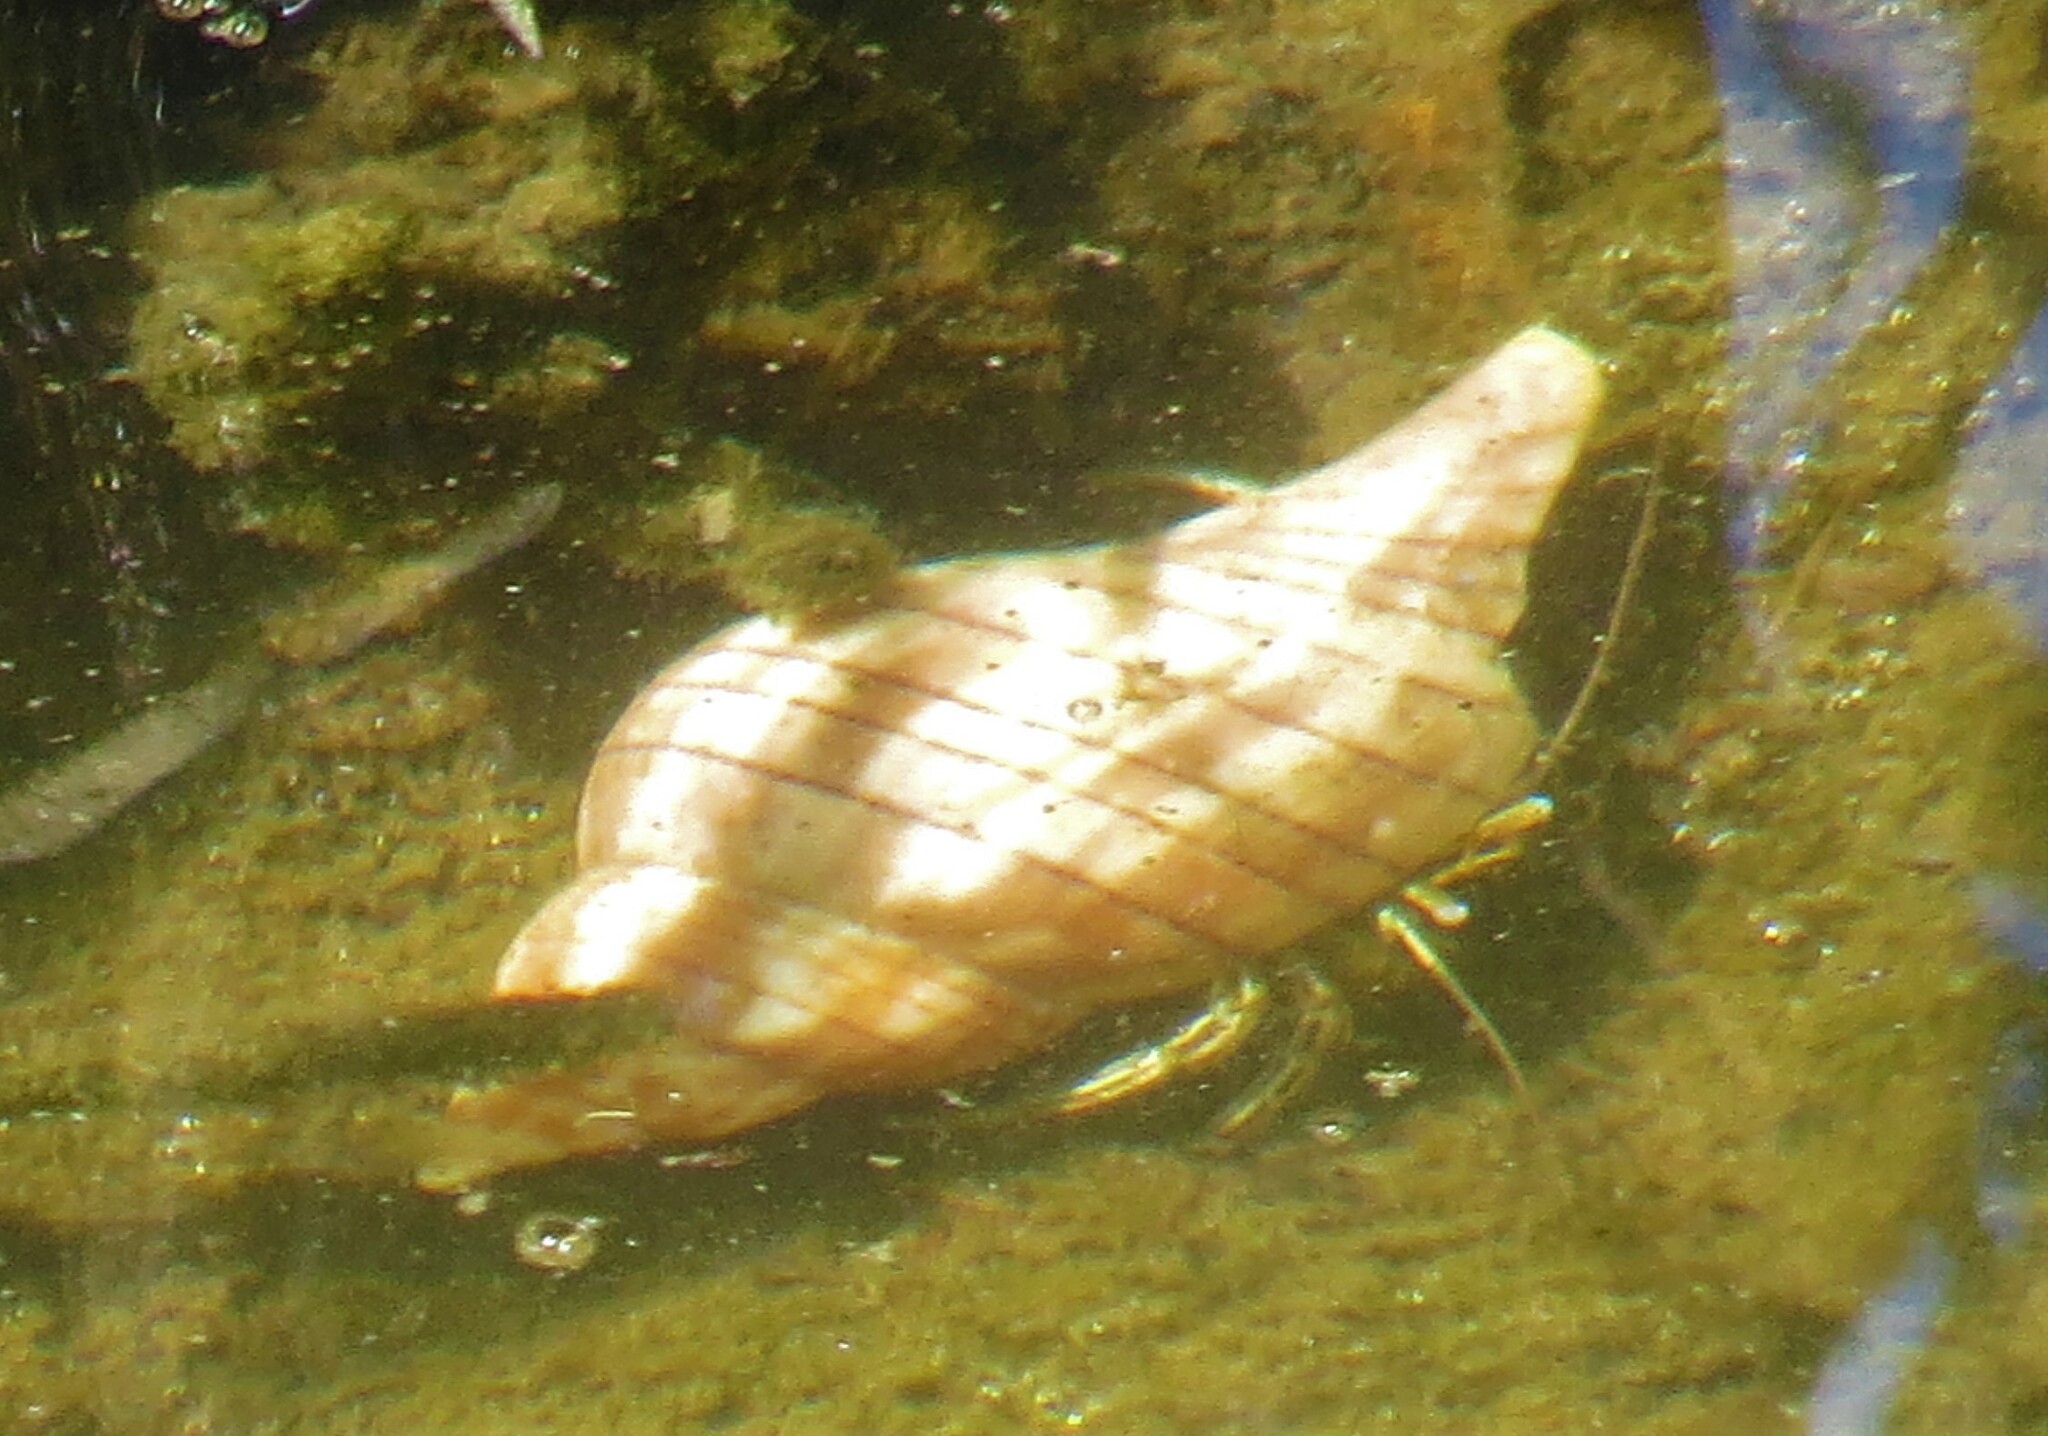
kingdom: Animalia
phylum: Arthropoda
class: Malacostraca
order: Decapoda
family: Diogenidae
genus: Clibanarius
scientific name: Clibanarius vittatus
